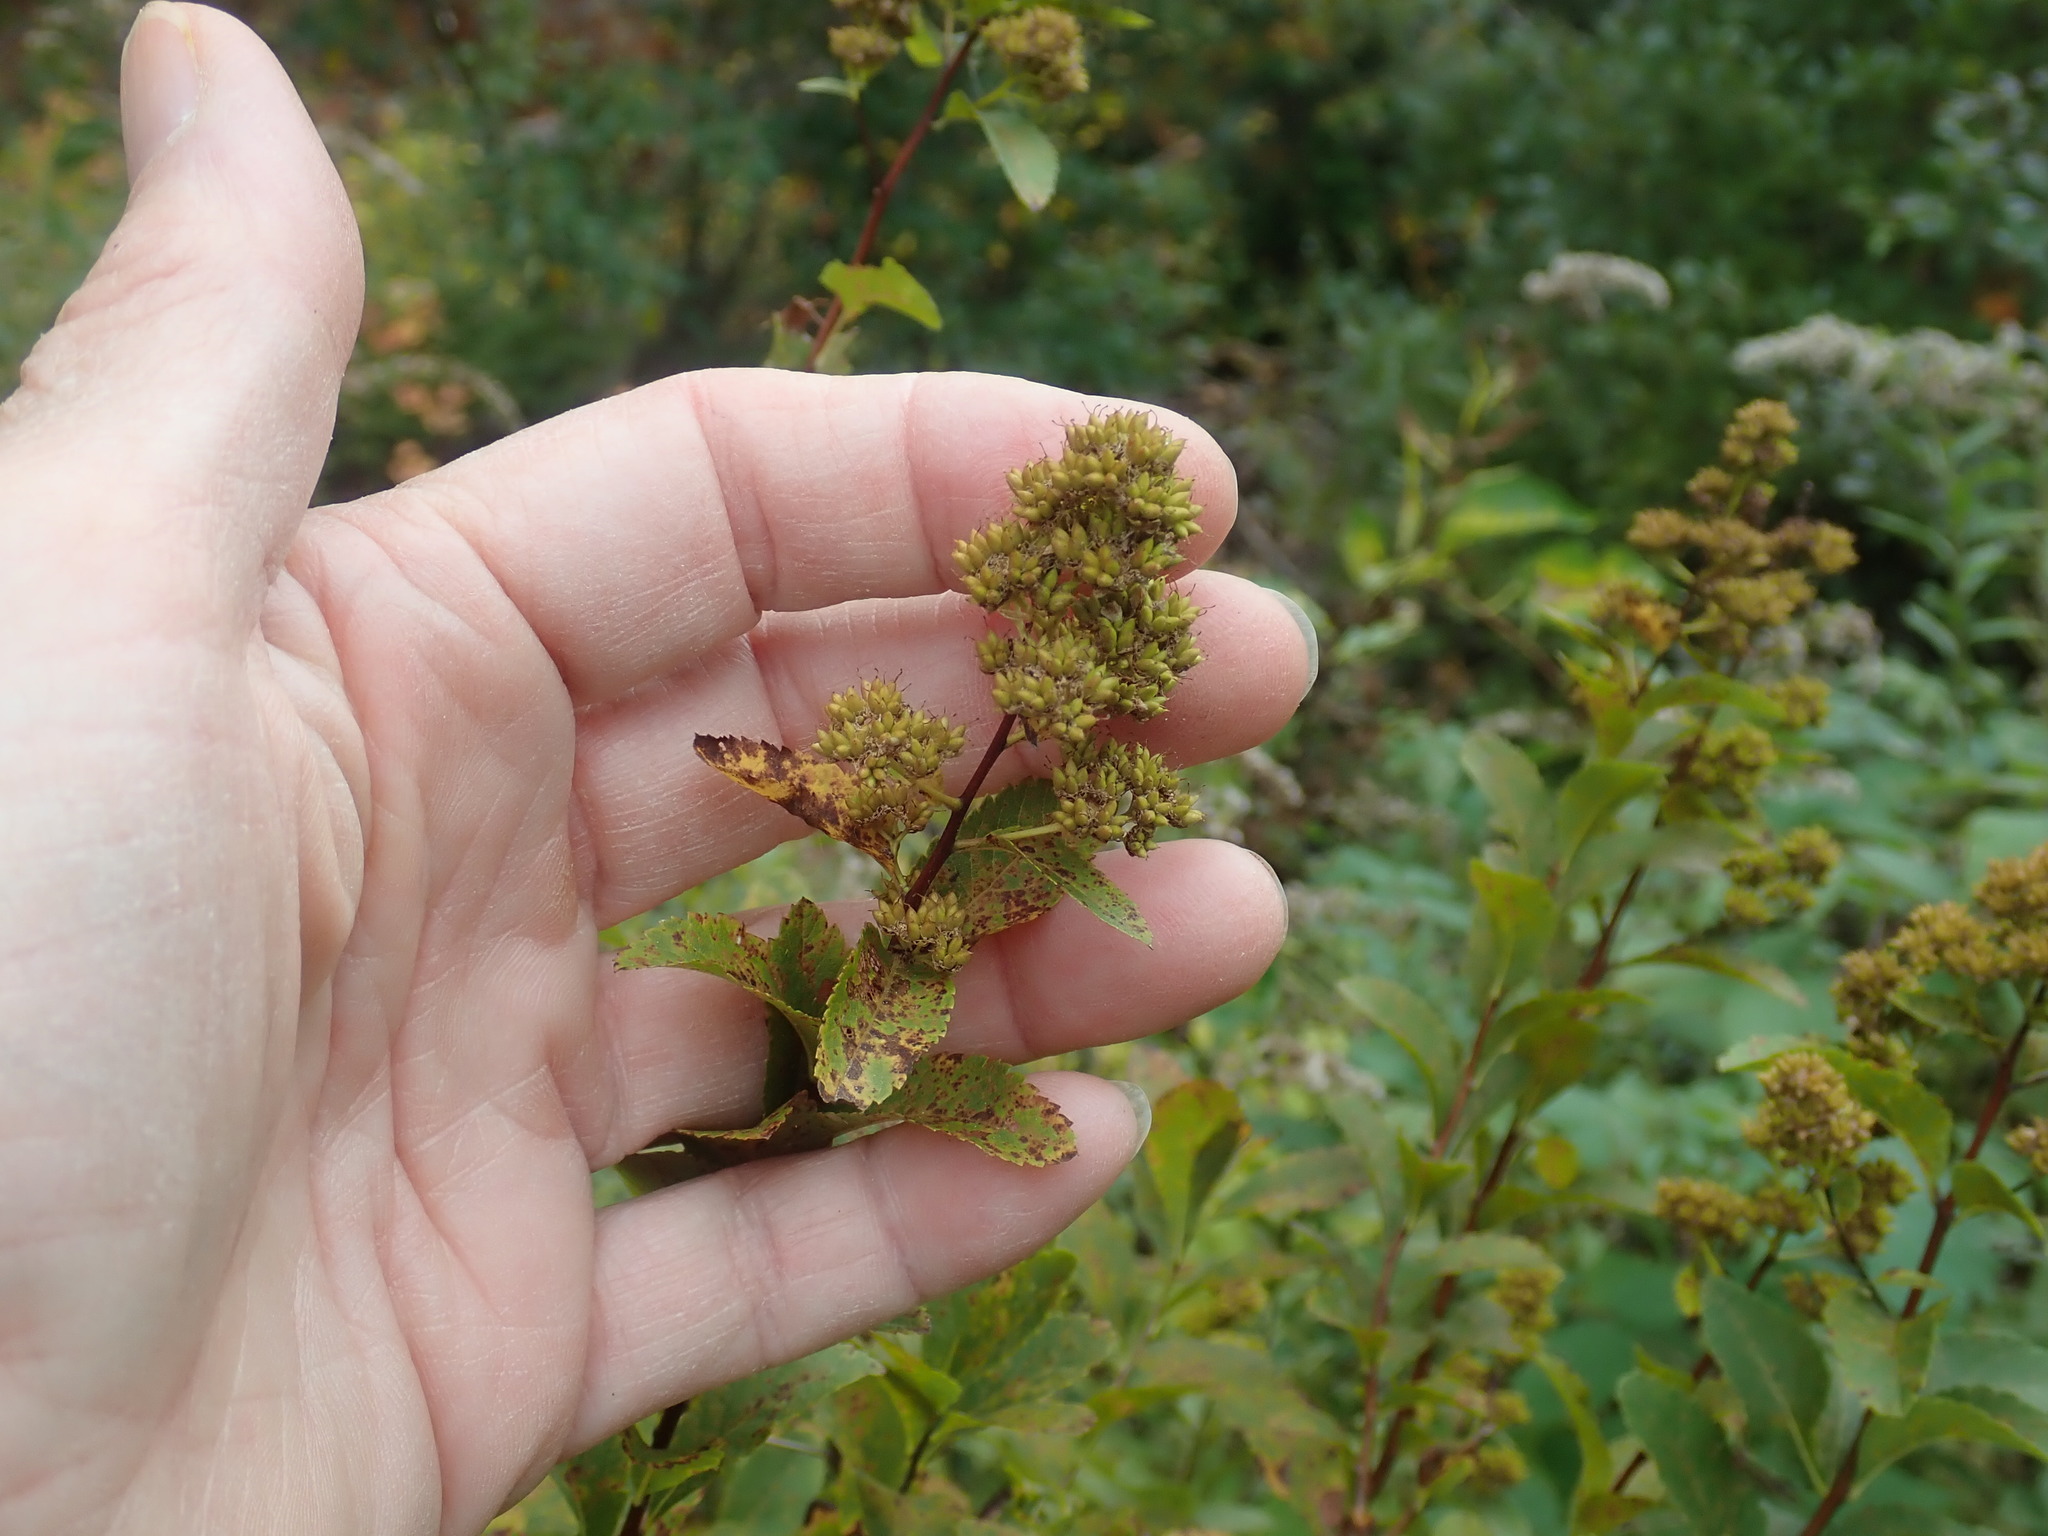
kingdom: Plantae
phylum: Tracheophyta
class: Magnoliopsida
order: Rosales
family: Rosaceae
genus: Spiraea
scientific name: Spiraea alba
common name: Pale bridewort
